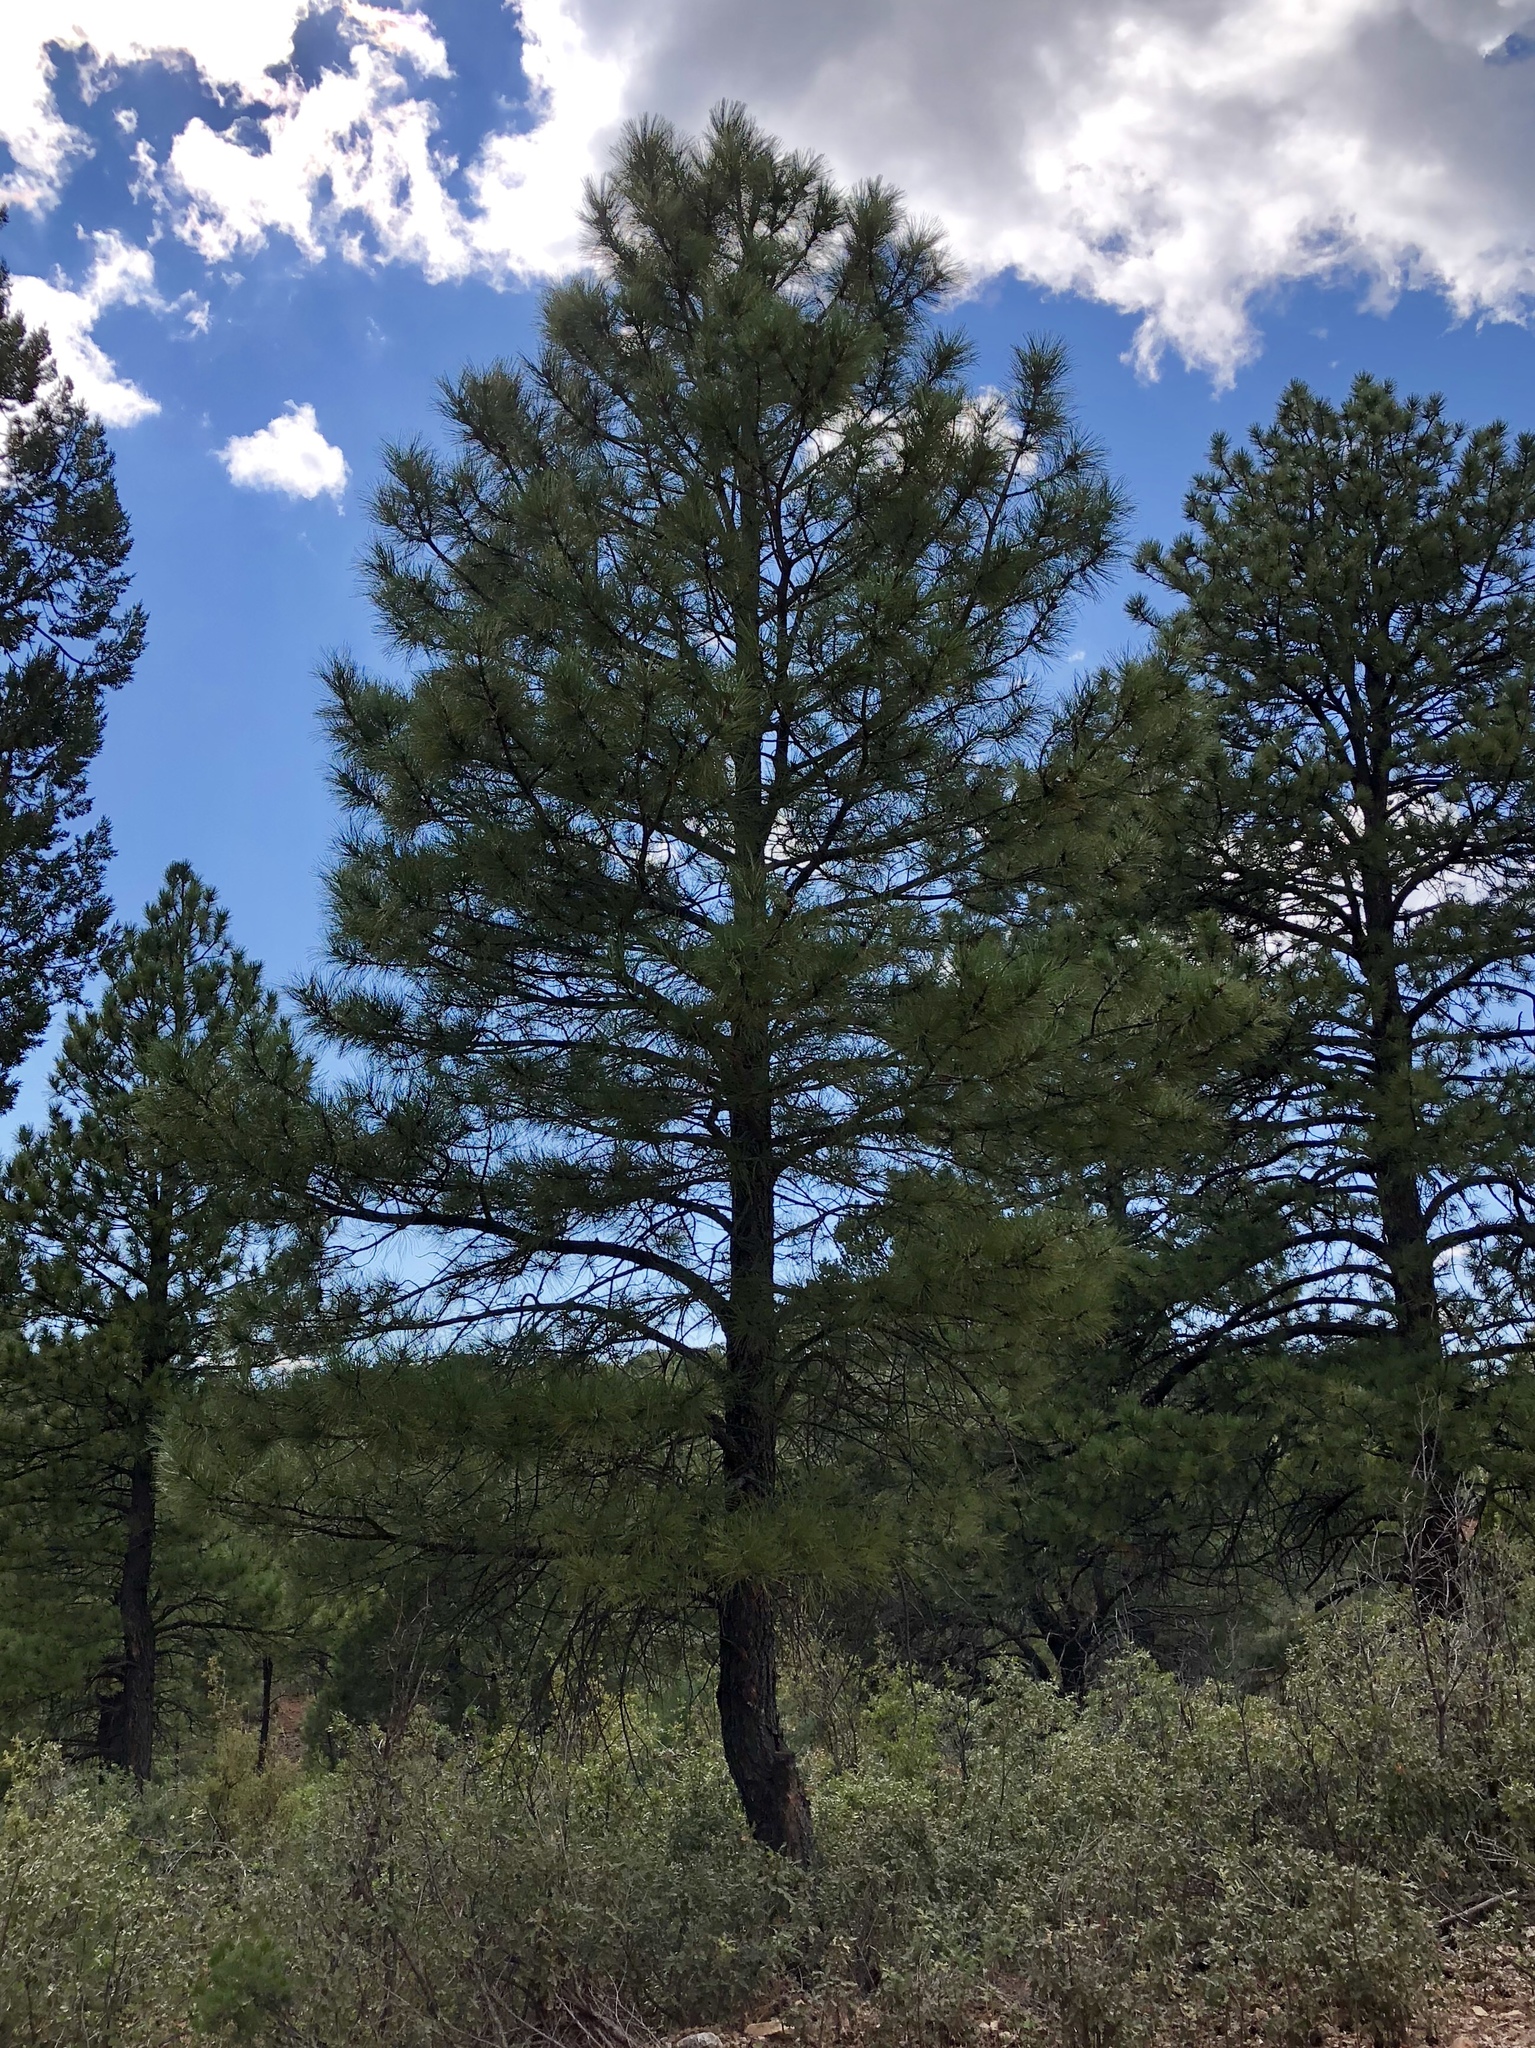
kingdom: Plantae
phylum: Tracheophyta
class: Pinopsida
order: Pinales
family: Pinaceae
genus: Pinus
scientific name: Pinus ponderosa
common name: Western yellow-pine
